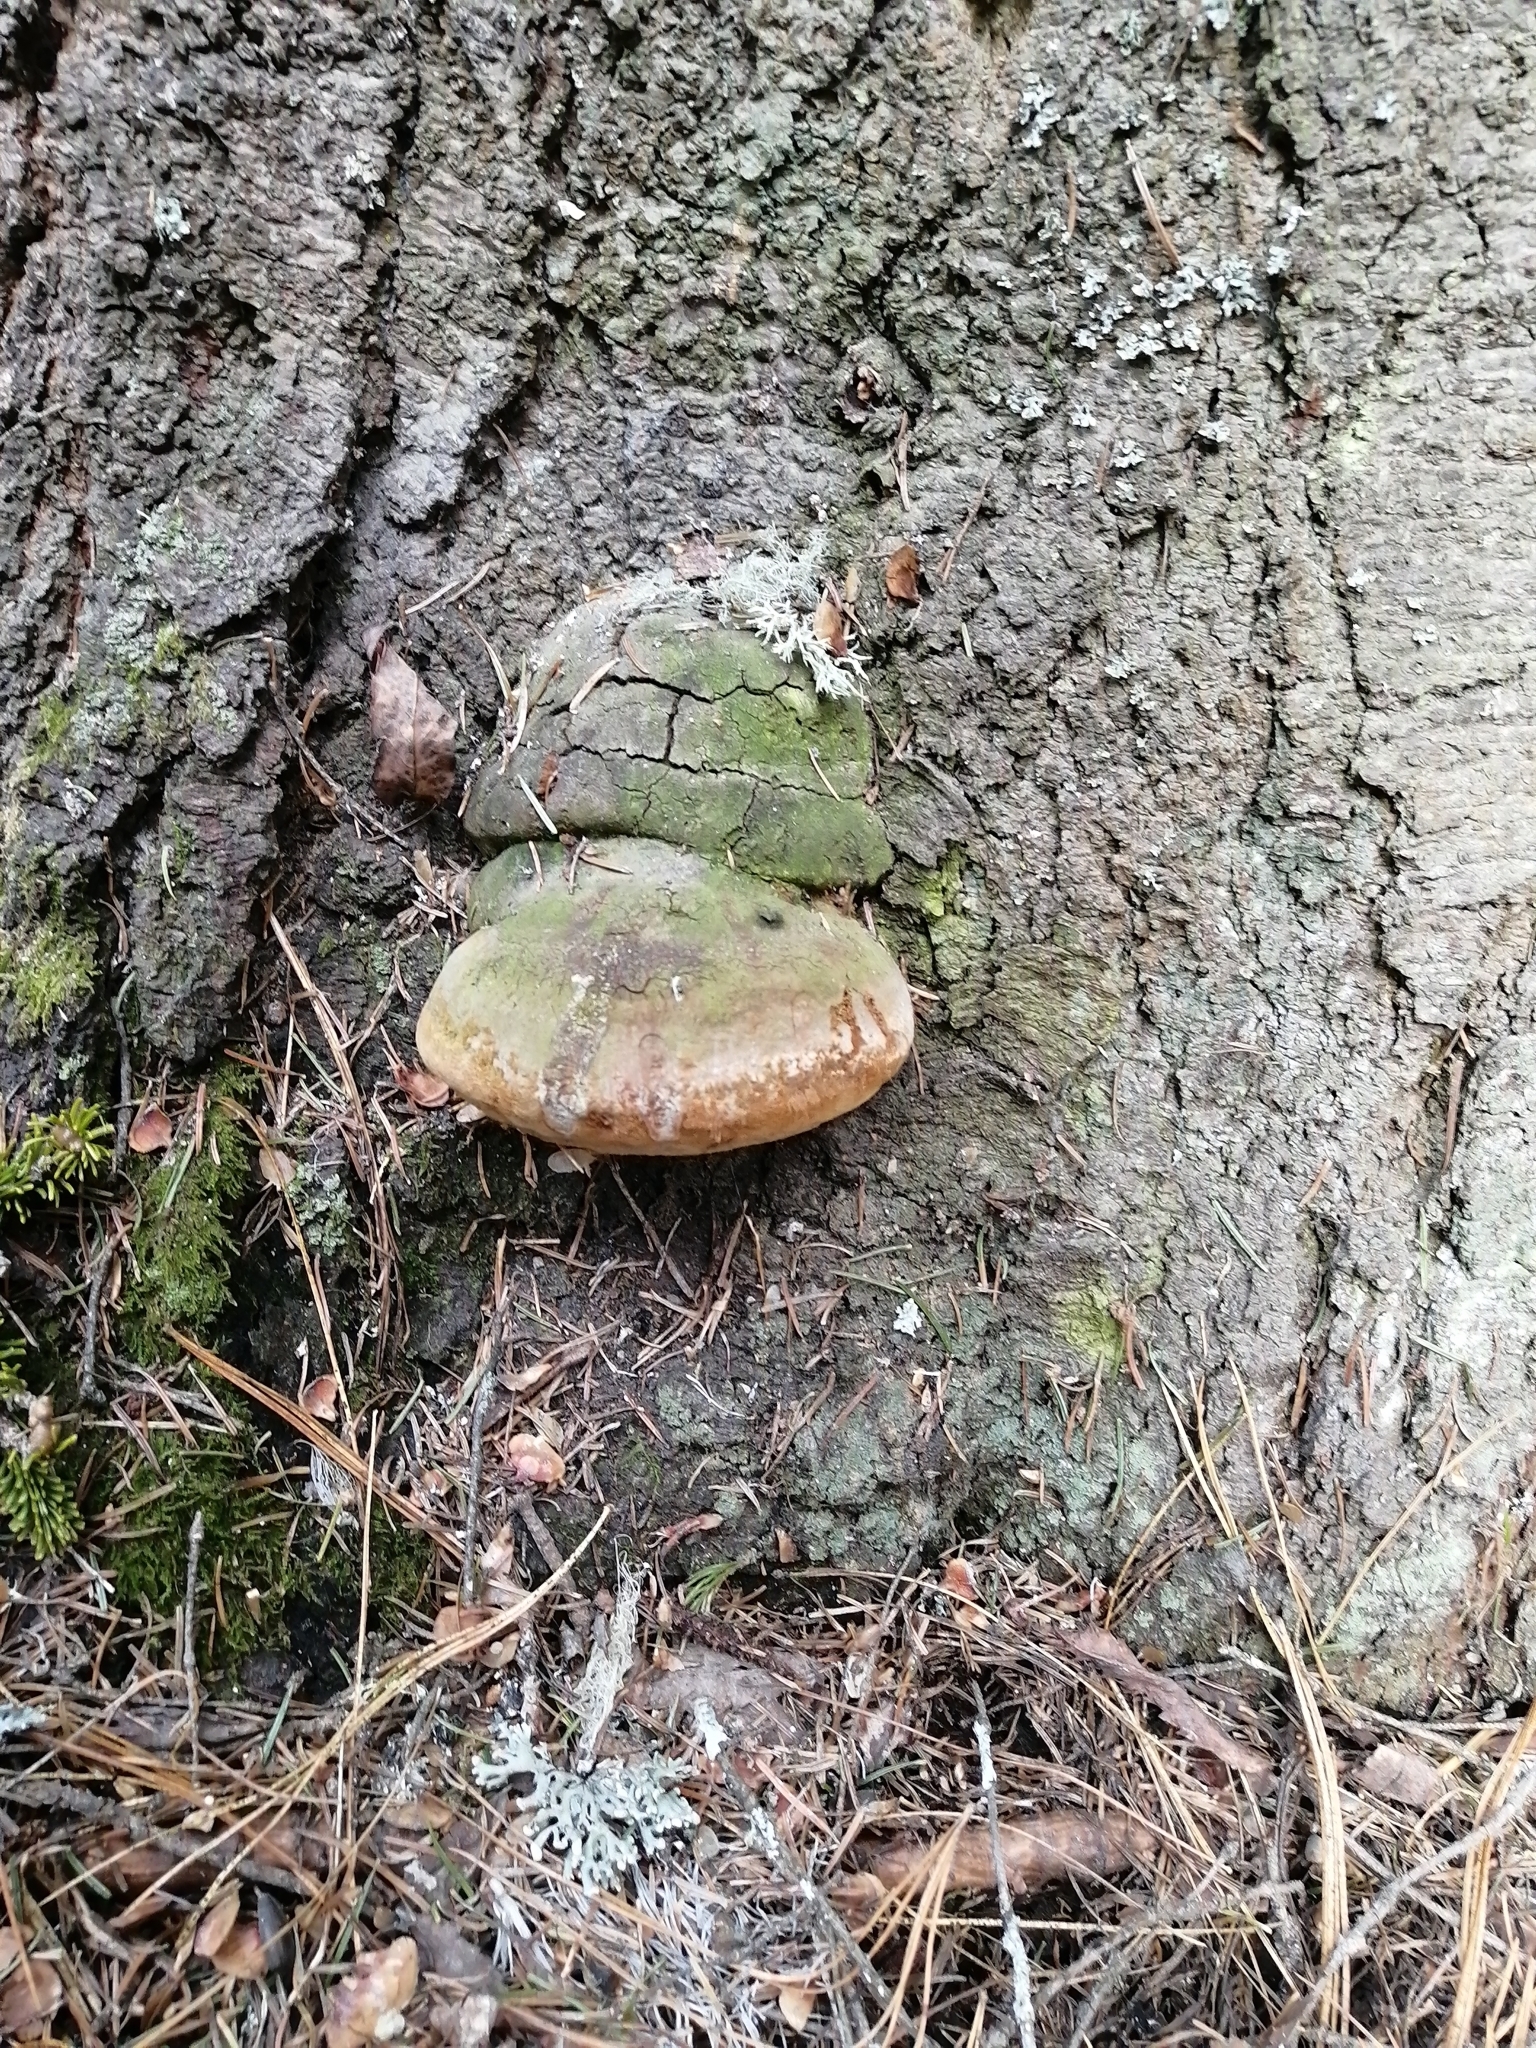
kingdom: Fungi
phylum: Basidiomycota
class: Agaricomycetes
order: Hymenochaetales
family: Hymenochaetaceae
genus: Phellinus
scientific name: Phellinus hartigii
